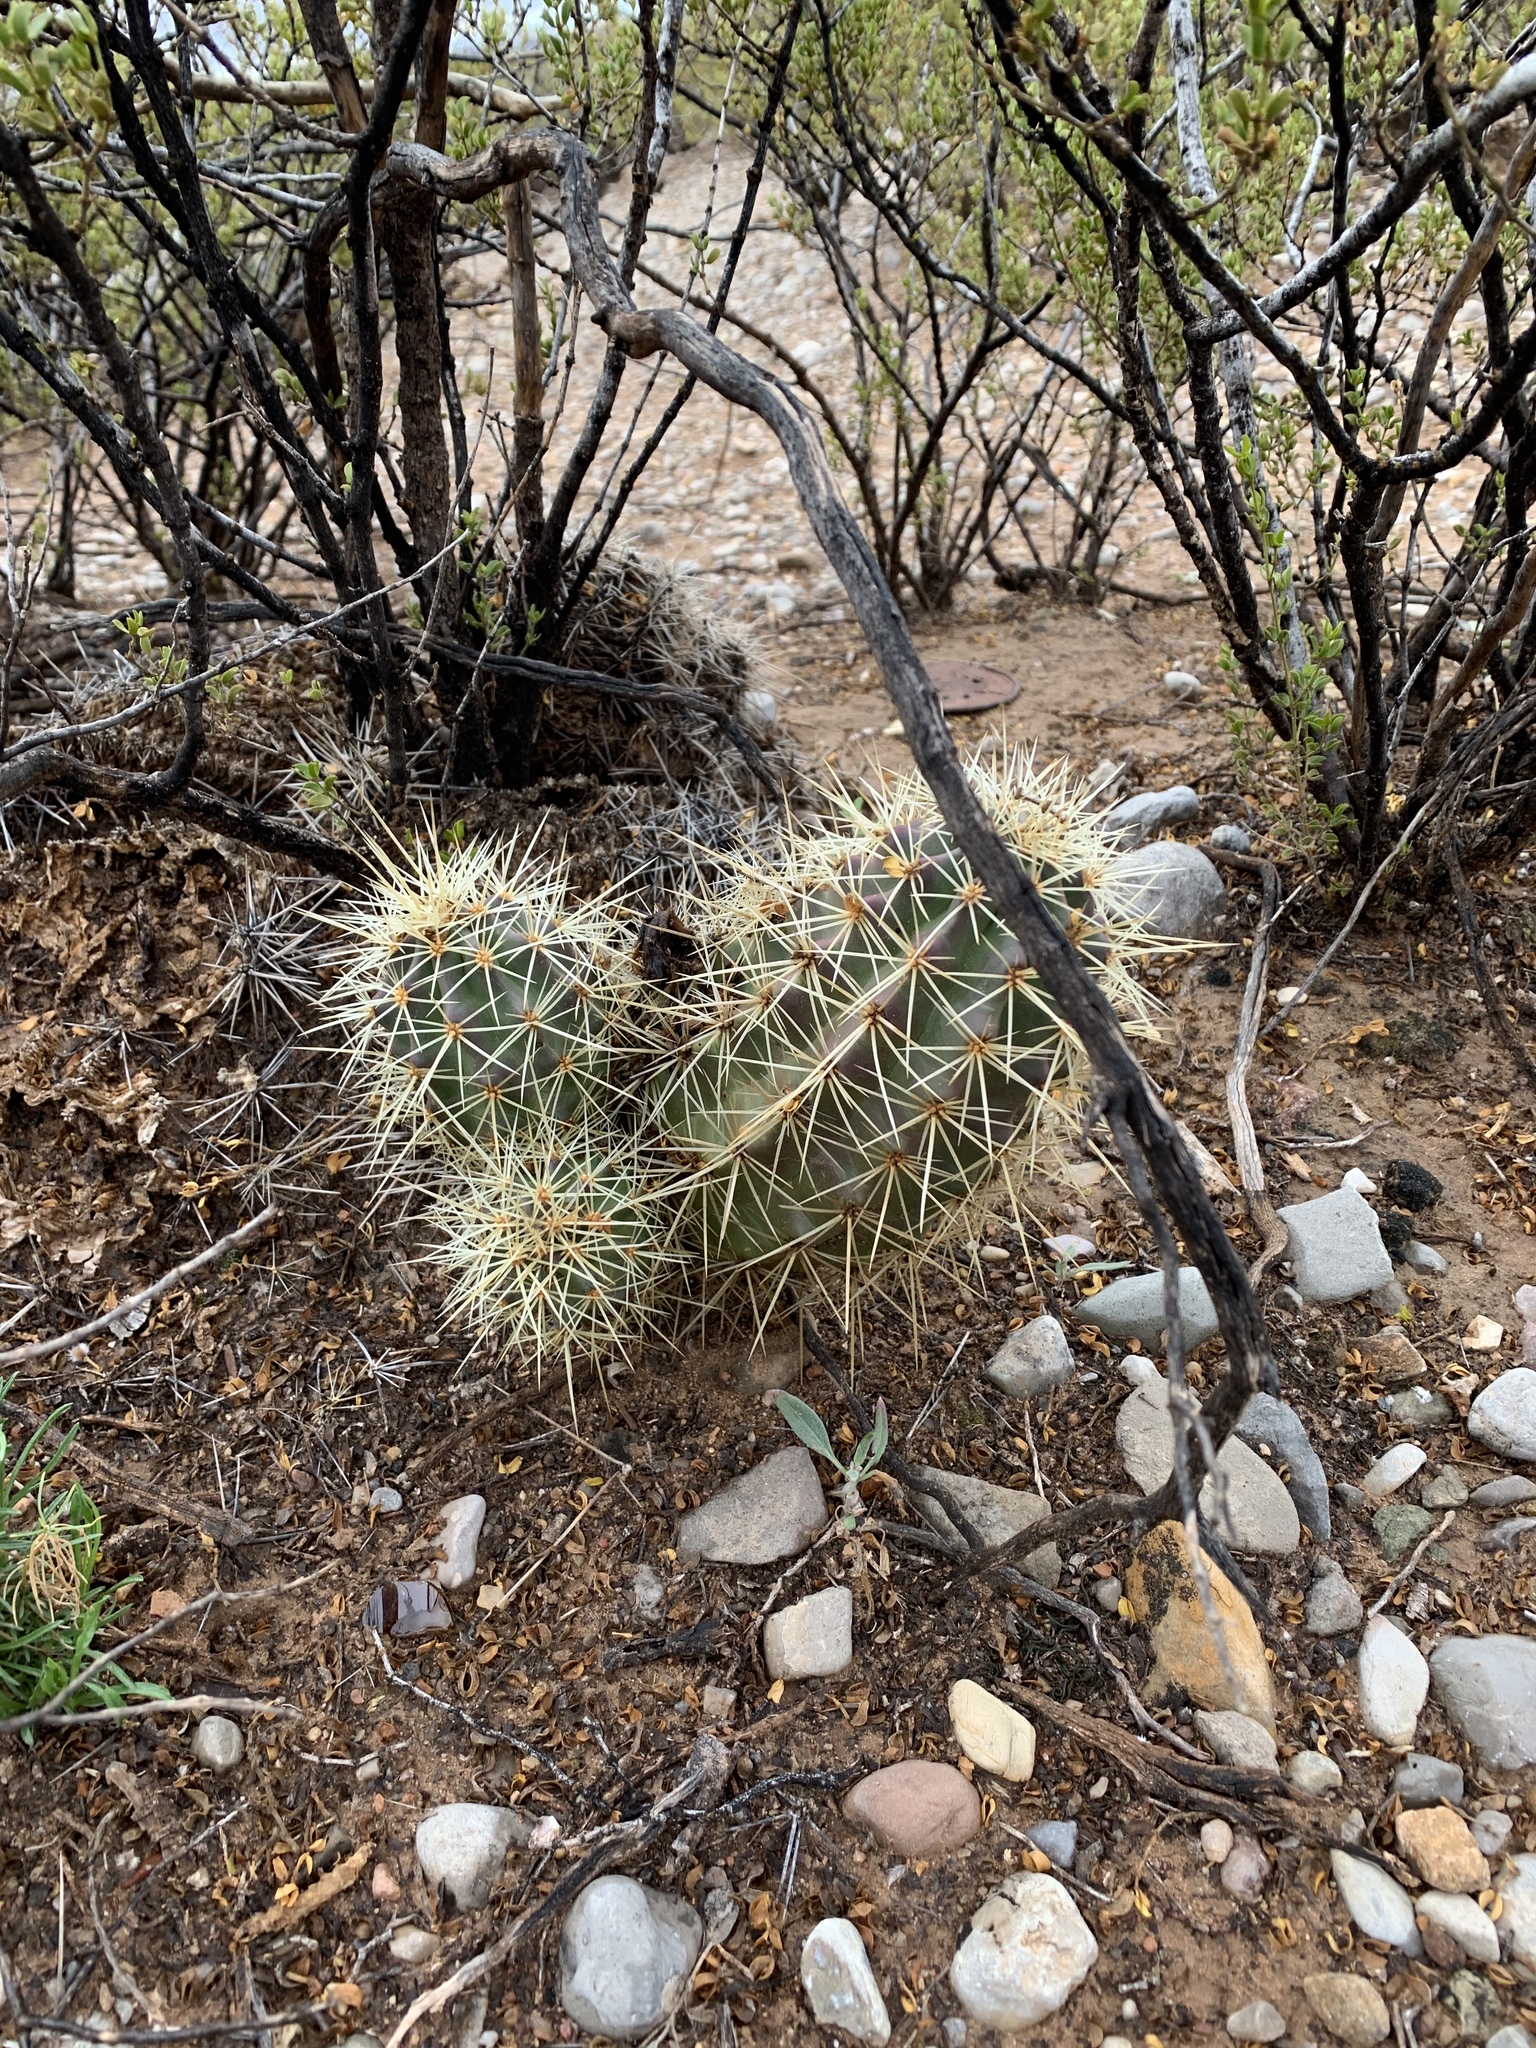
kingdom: Plantae
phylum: Tracheophyta
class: Magnoliopsida
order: Caryophyllales
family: Cactaceae
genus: Echinocereus
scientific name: Echinocereus coccineus
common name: Scarlet hedgehog cactus
